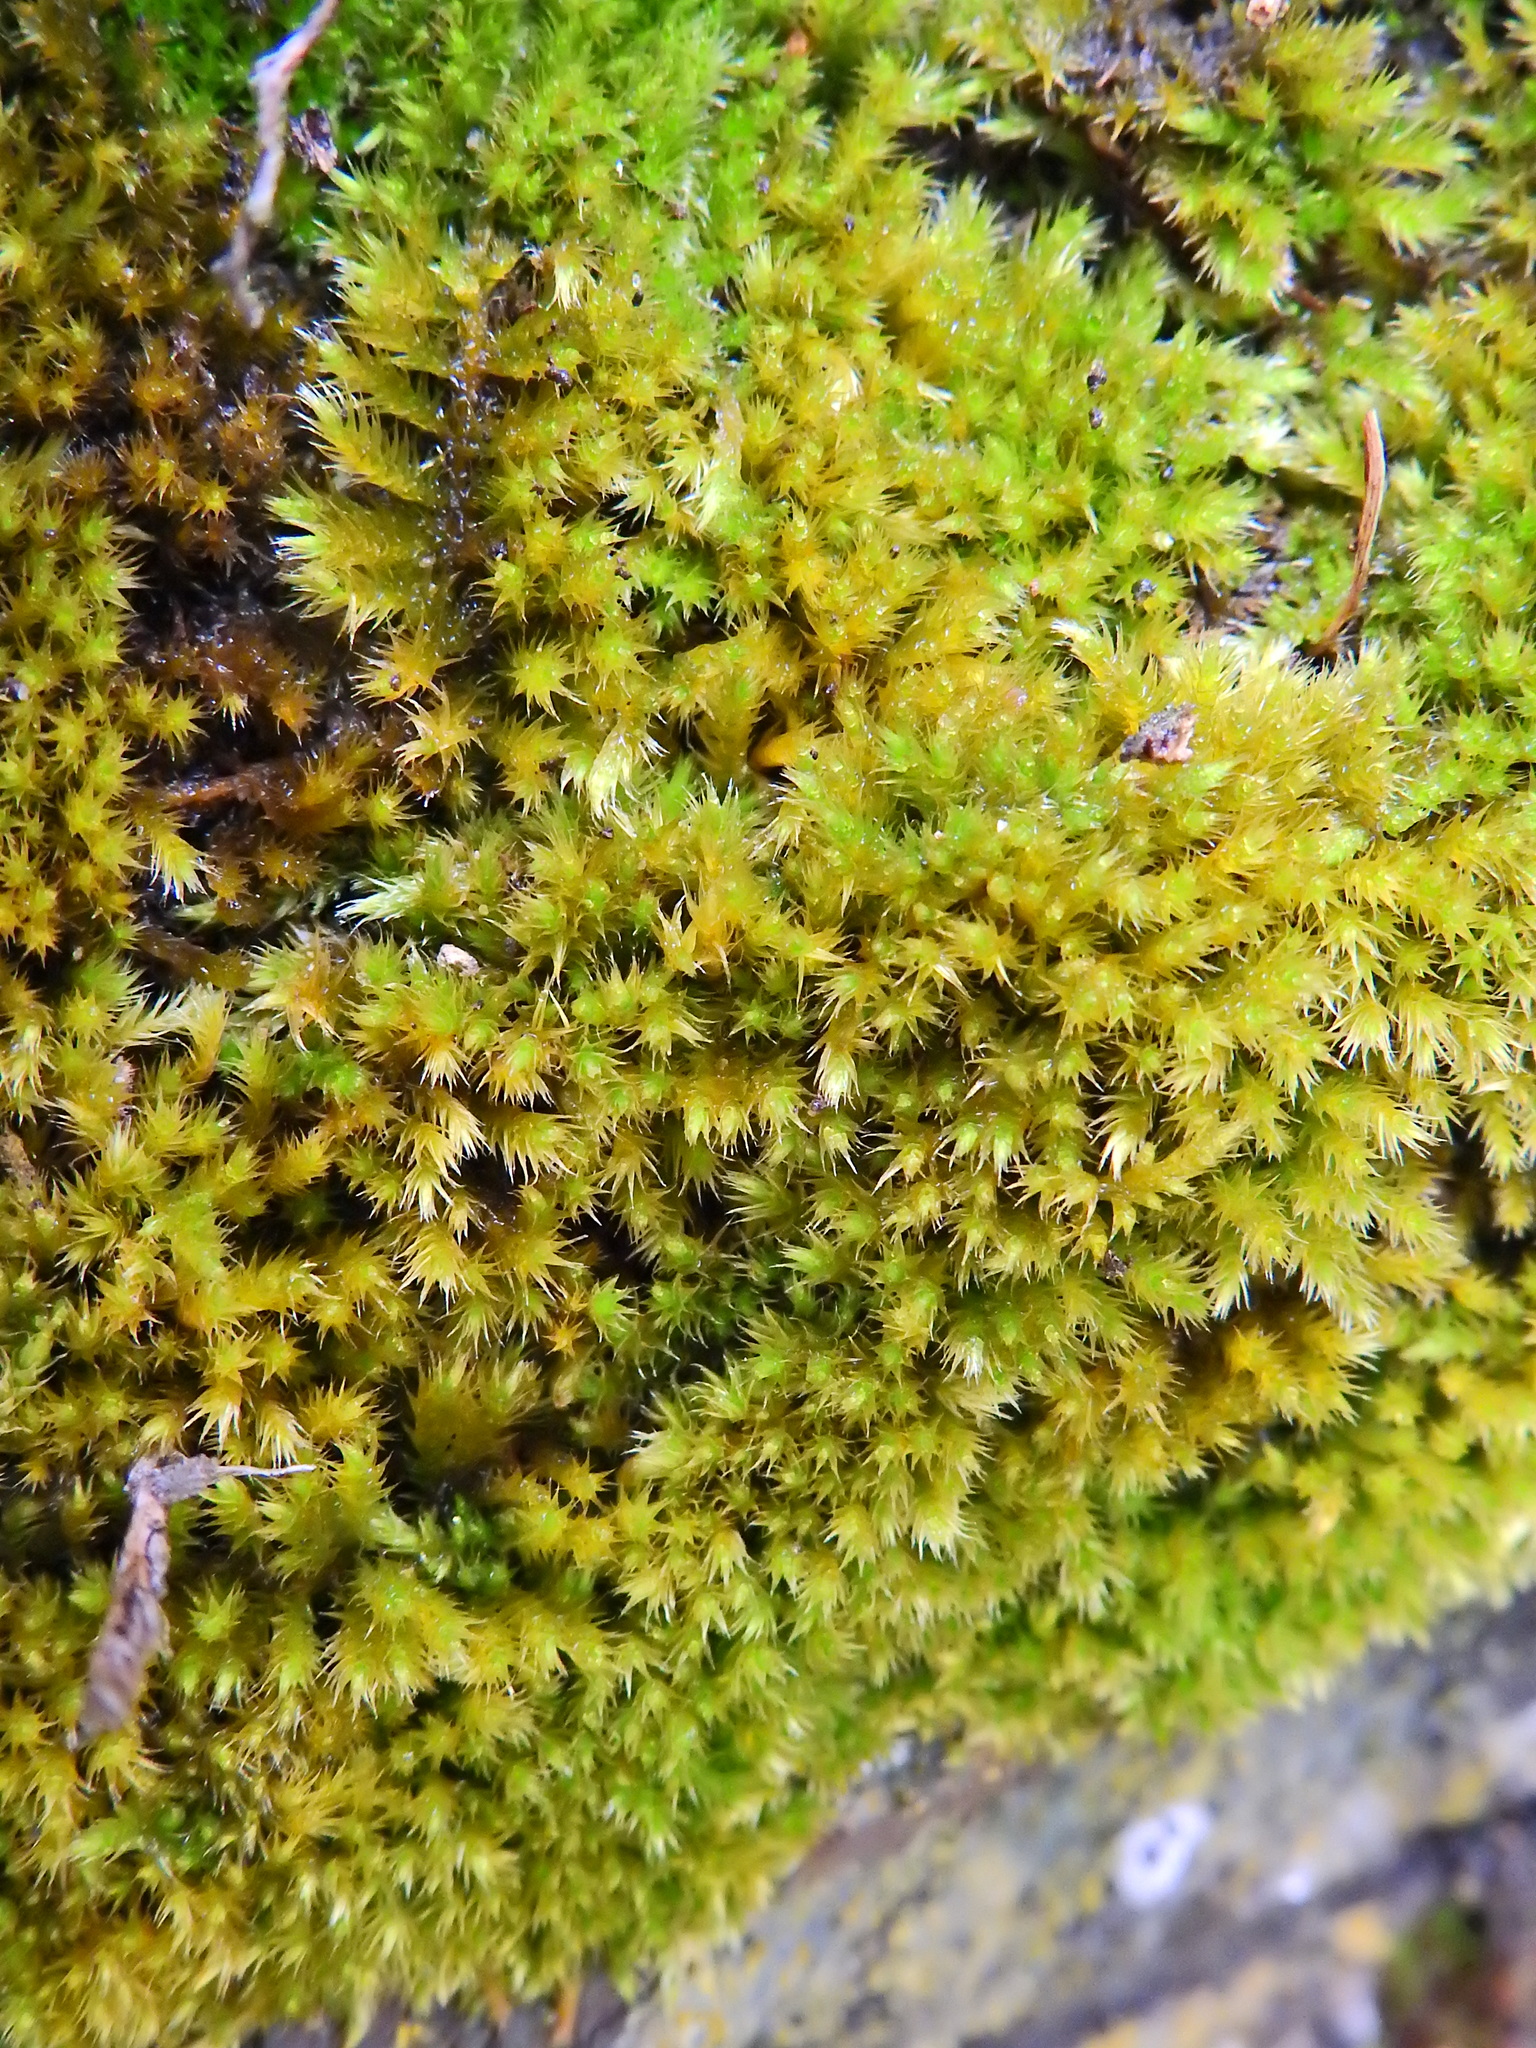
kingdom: Plantae
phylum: Bryophyta
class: Bryopsida
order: Hypnales
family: Brachytheciaceae
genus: Homalothecium
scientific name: Homalothecium sericeum
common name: Silky wall feather-moss
